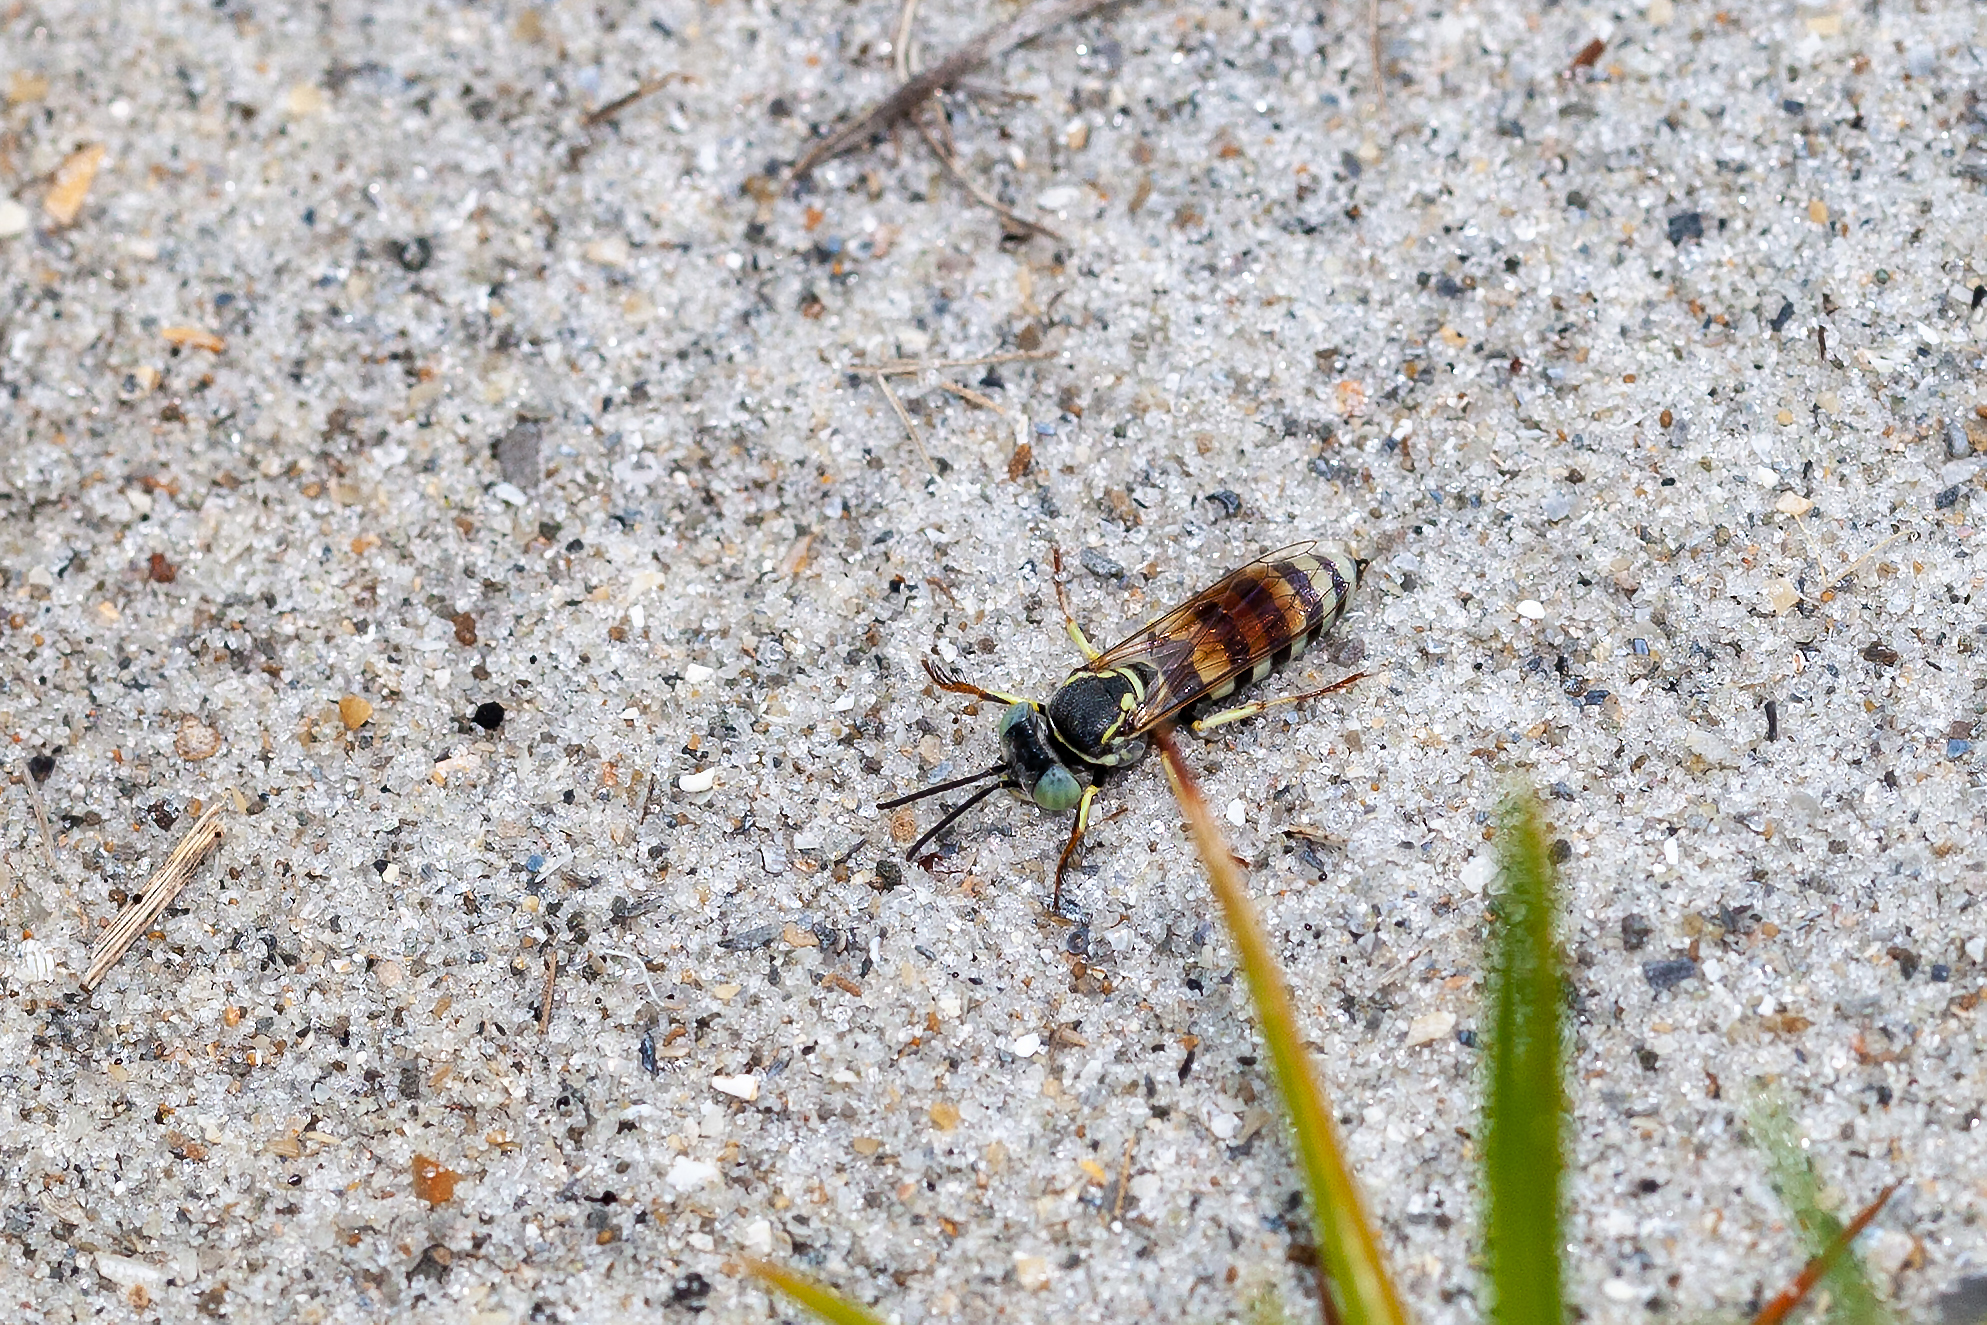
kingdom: Animalia
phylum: Arthropoda
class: Insecta
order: Hymenoptera
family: Crabronidae
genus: Microbembex
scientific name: Microbembex monodonta
